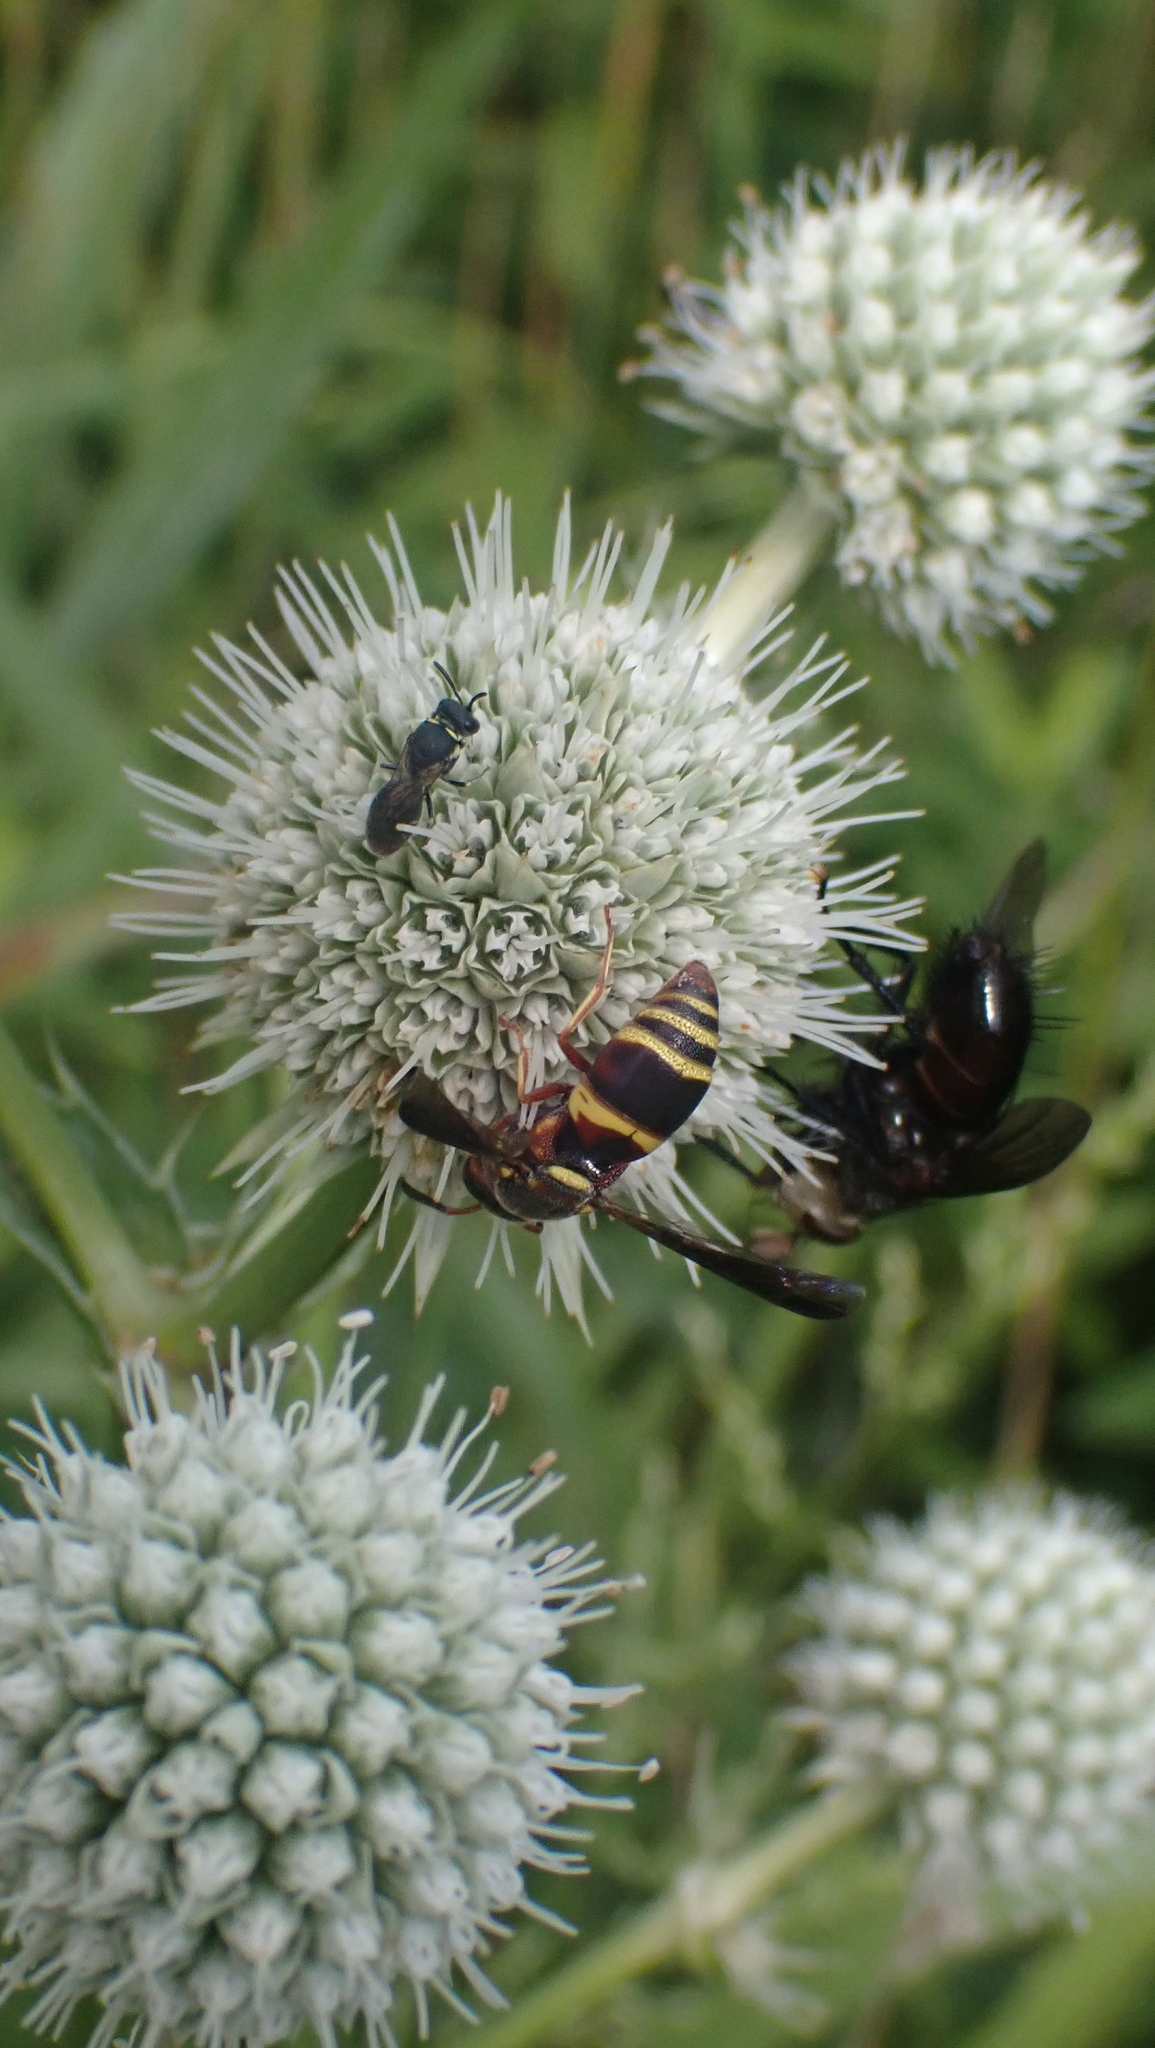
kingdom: Animalia
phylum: Arthropoda
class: Insecta
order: Hymenoptera
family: Eumenidae
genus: Euodynerus
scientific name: Euodynerus hidalgo
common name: Wasp
